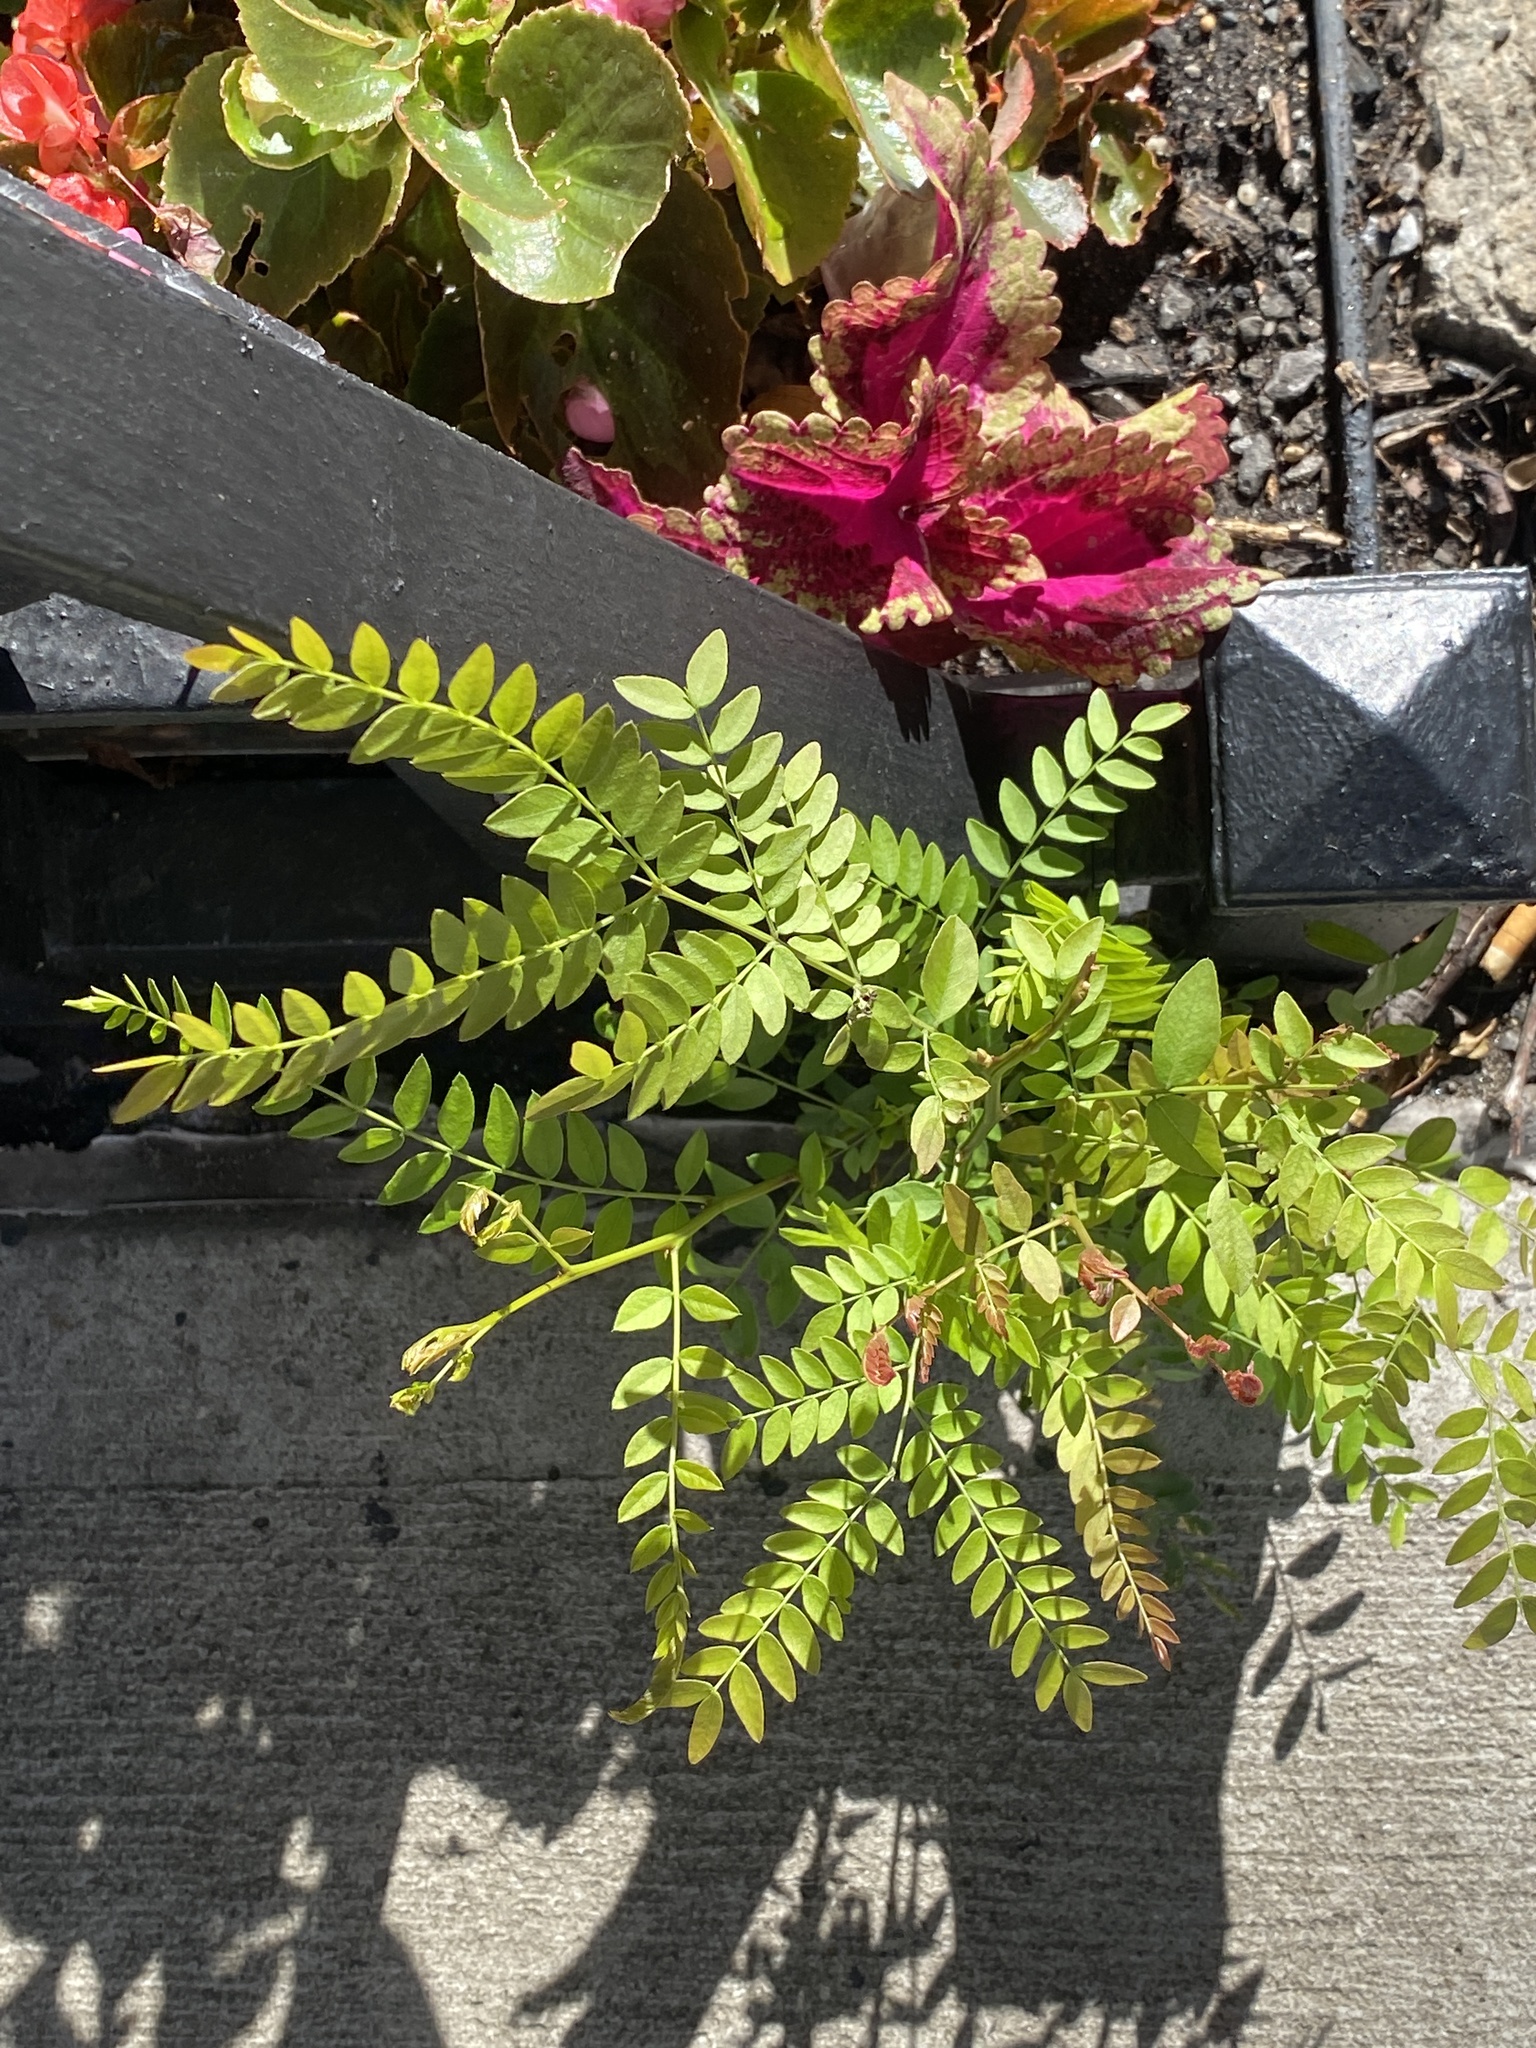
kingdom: Plantae
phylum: Tracheophyta
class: Magnoliopsida
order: Fabales
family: Fabaceae
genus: Gleditsia
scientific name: Gleditsia triacanthos
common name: Common honeylocust
